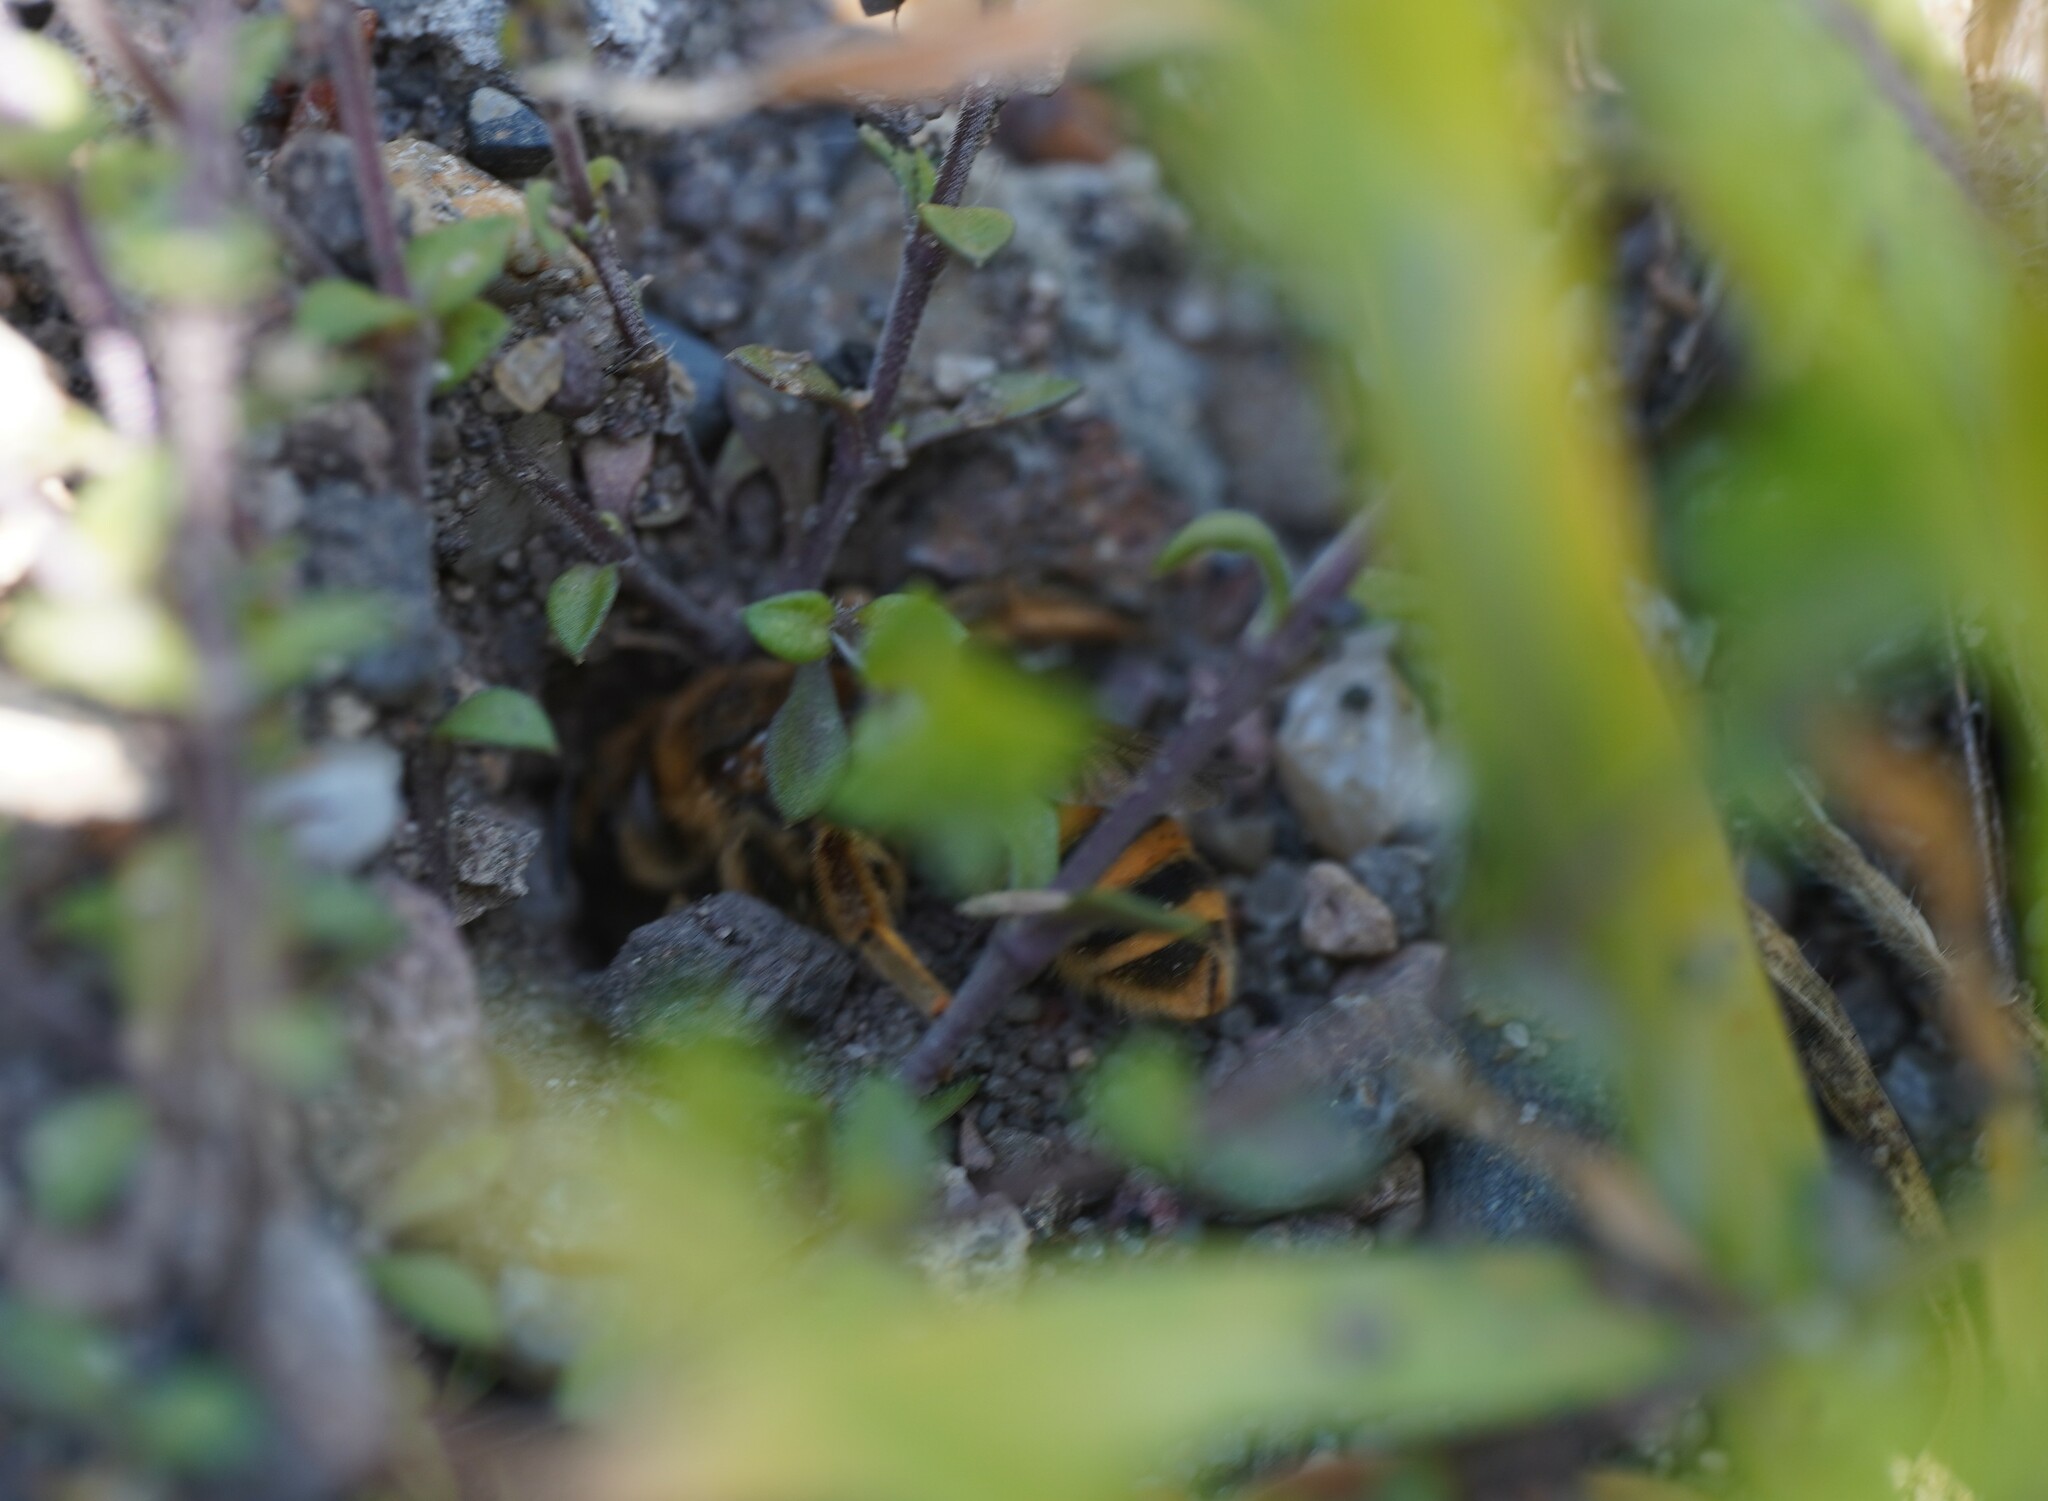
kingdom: Animalia
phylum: Arthropoda
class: Insecta
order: Hymenoptera
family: Halictidae
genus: Halictus
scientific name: Halictus scabiosae
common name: Great banded furrow bee
